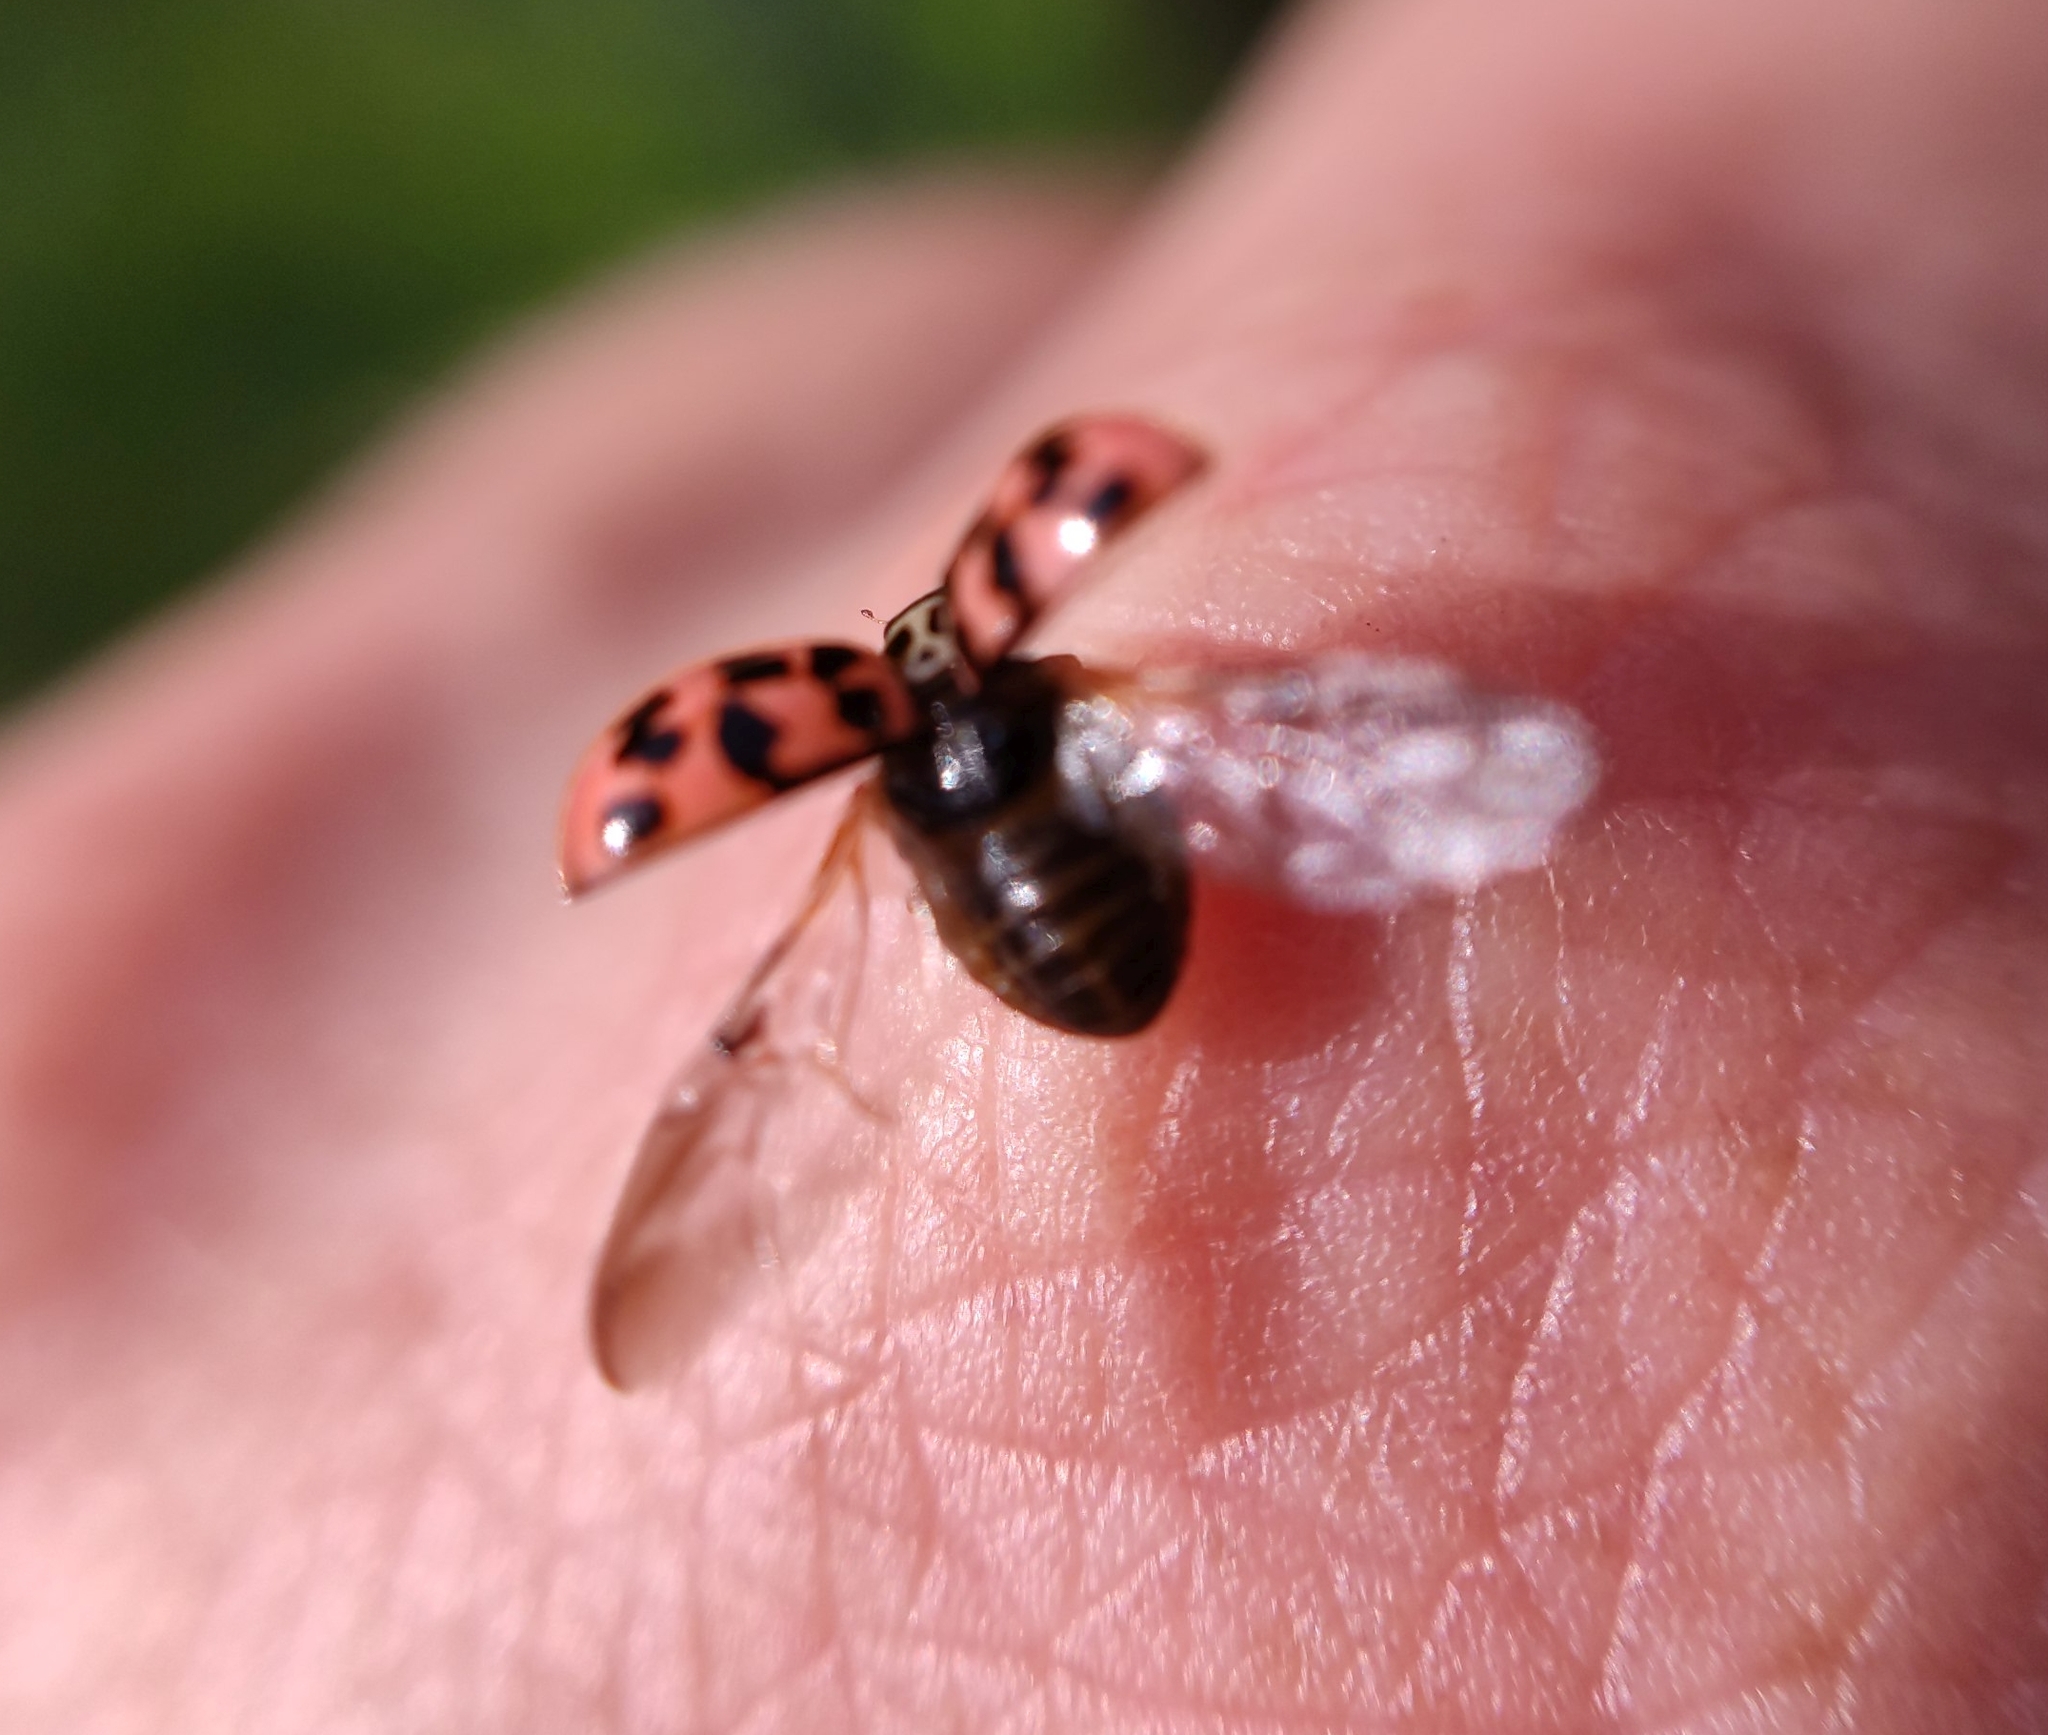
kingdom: Animalia
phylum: Arthropoda
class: Insecta
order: Coleoptera
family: Coccinellidae
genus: Oenopia
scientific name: Oenopia conglobata
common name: Ladybird beetle
